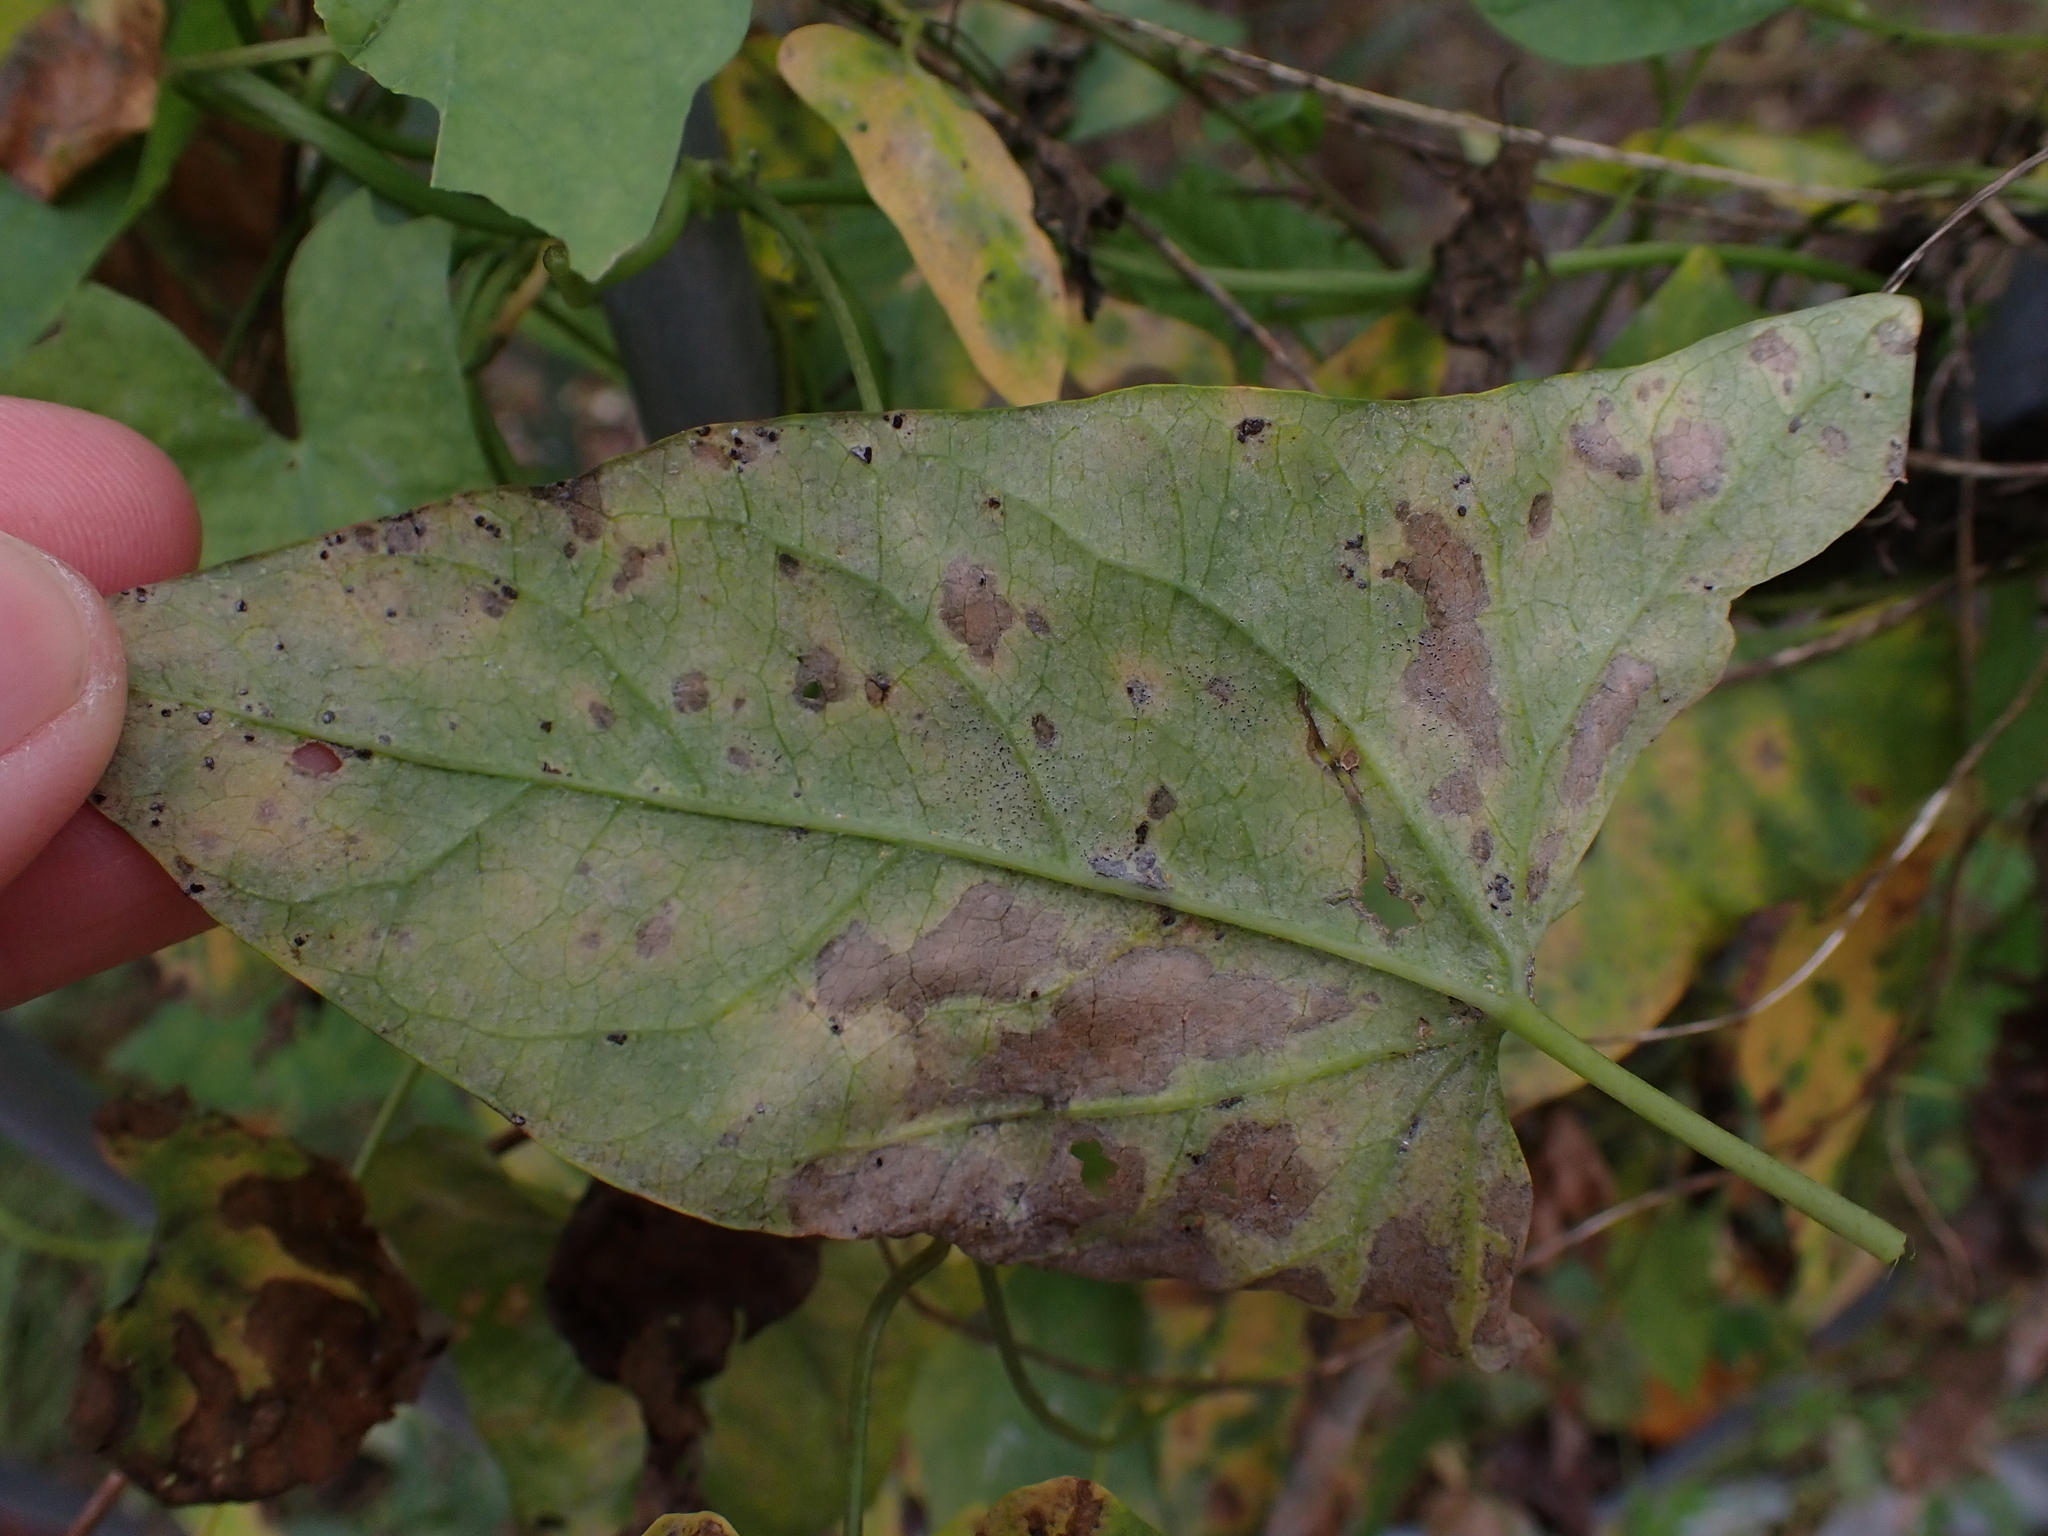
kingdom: Fungi
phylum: Ascomycota
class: Leotiomycetes
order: Helotiales
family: Erysiphaceae
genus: Erysiphe
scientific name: Erysiphe convolvuli
